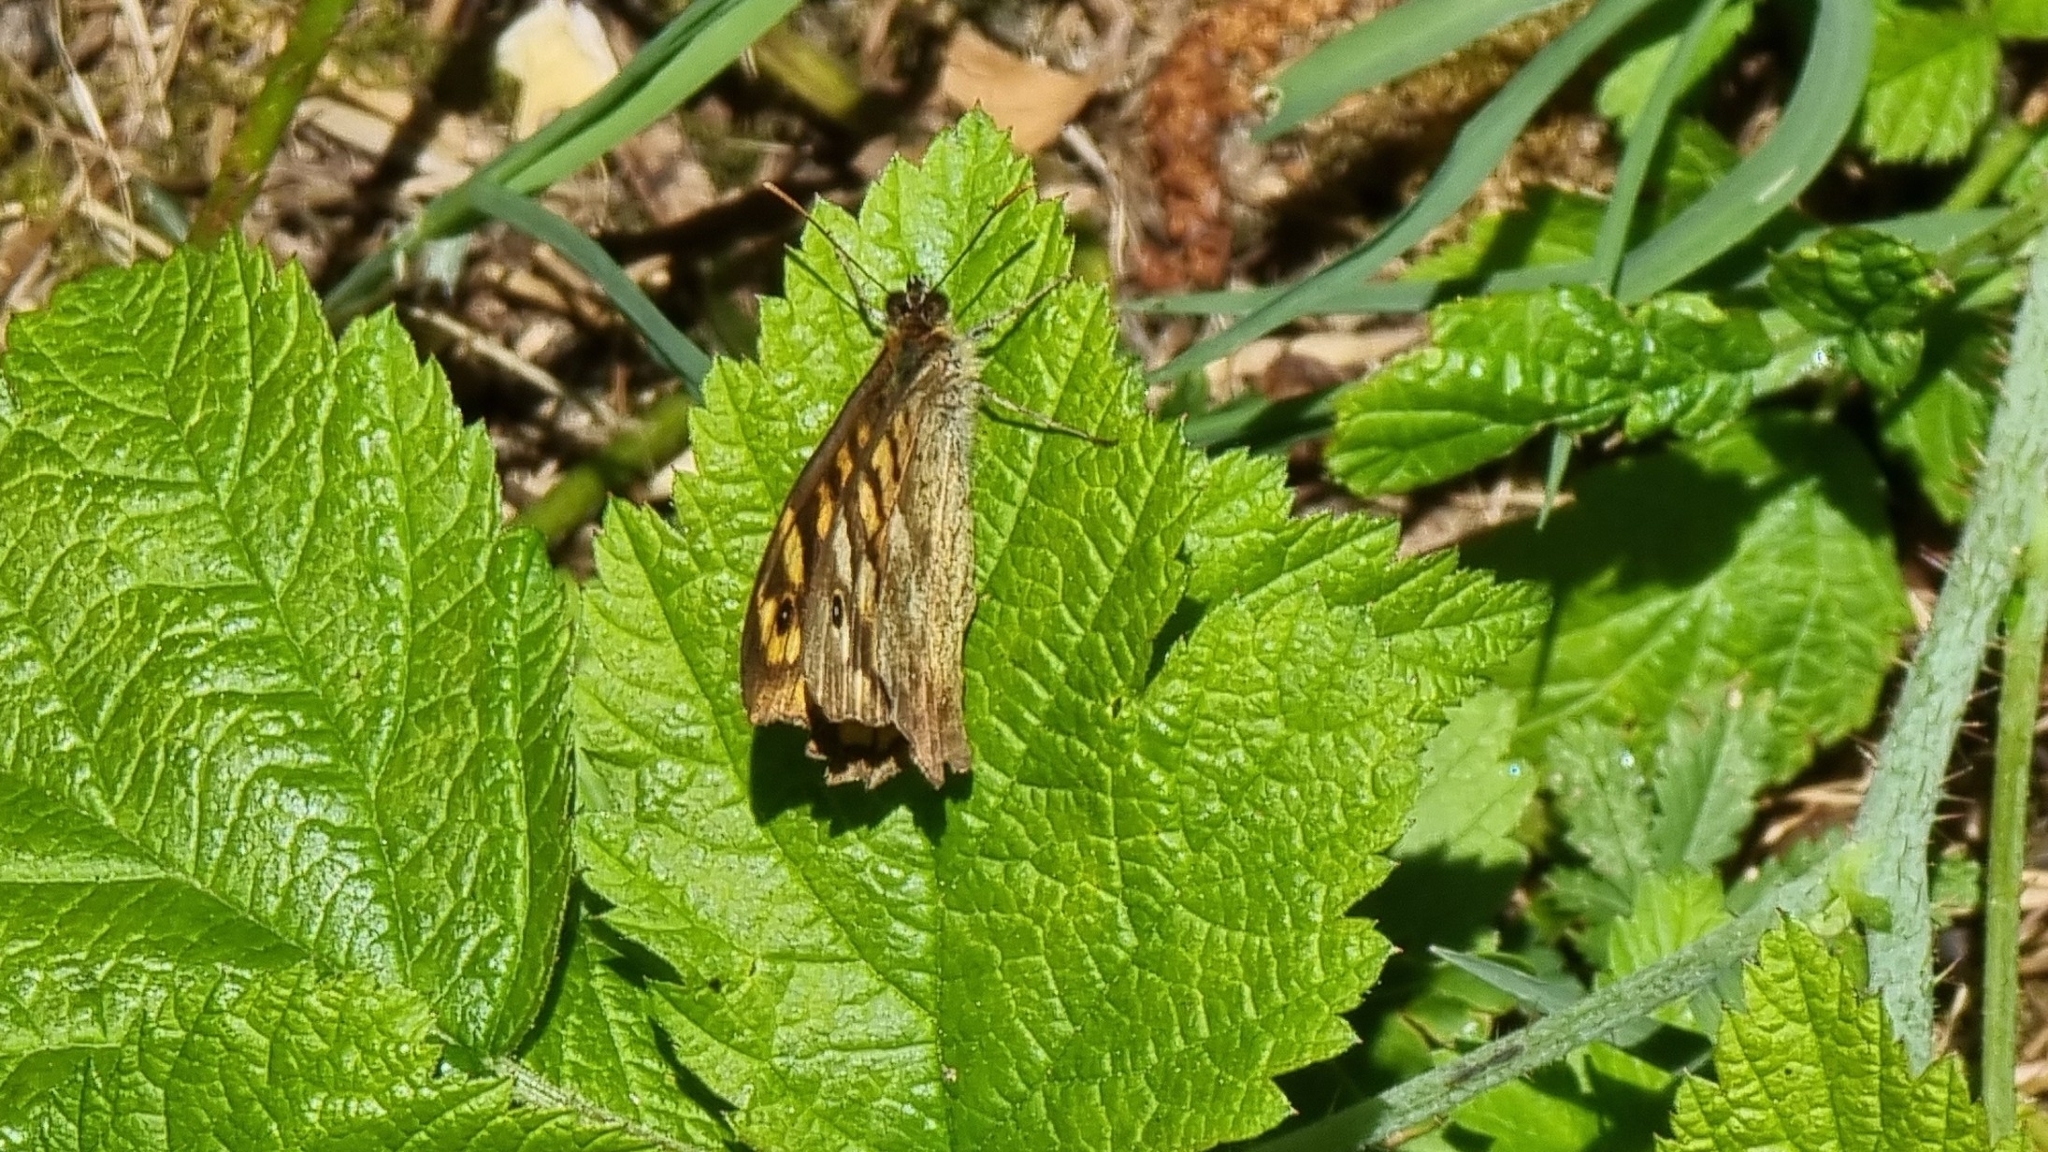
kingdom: Animalia
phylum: Arthropoda
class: Insecta
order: Lepidoptera
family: Nymphalidae
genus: Pararge
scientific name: Pararge aegeria
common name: Speckled wood
